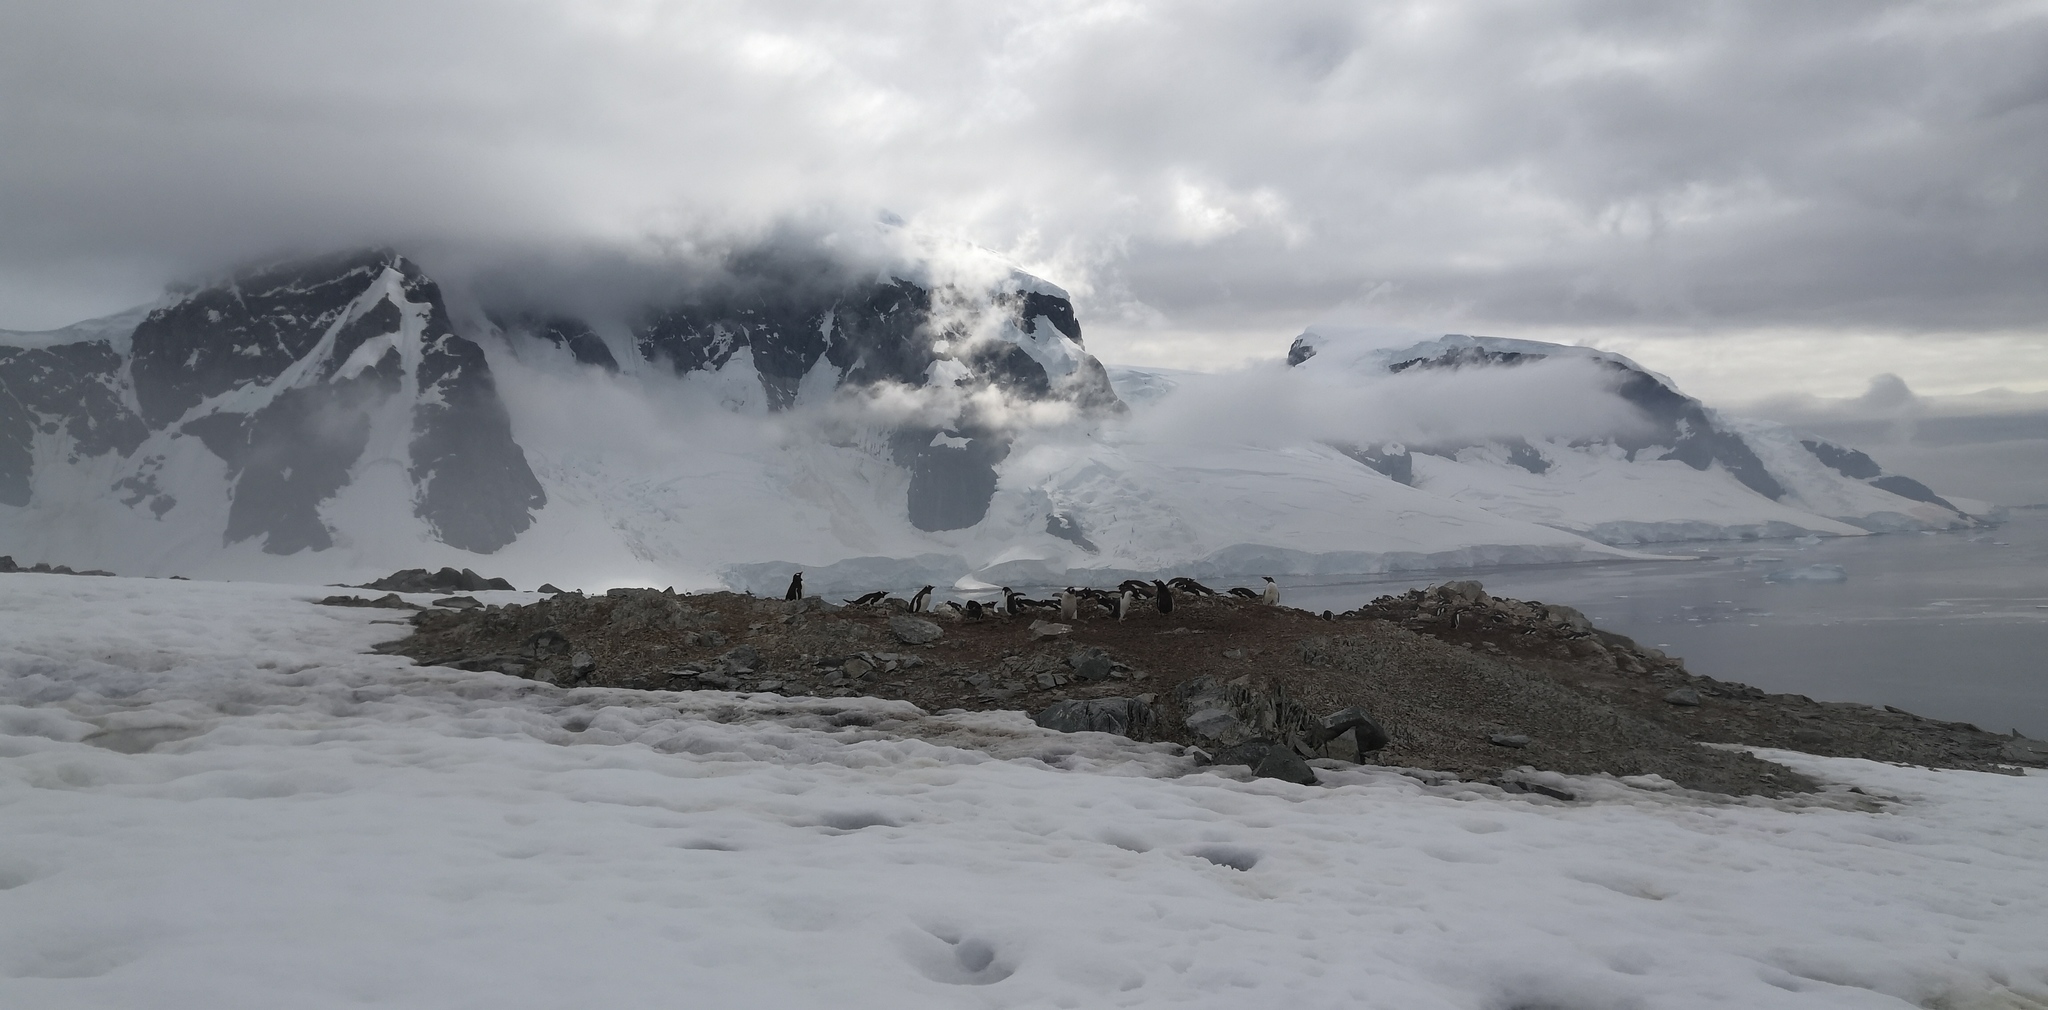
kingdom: Animalia
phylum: Chordata
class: Aves
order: Sphenisciformes
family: Spheniscidae
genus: Pygoscelis
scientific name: Pygoscelis papua
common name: Gentoo penguin
